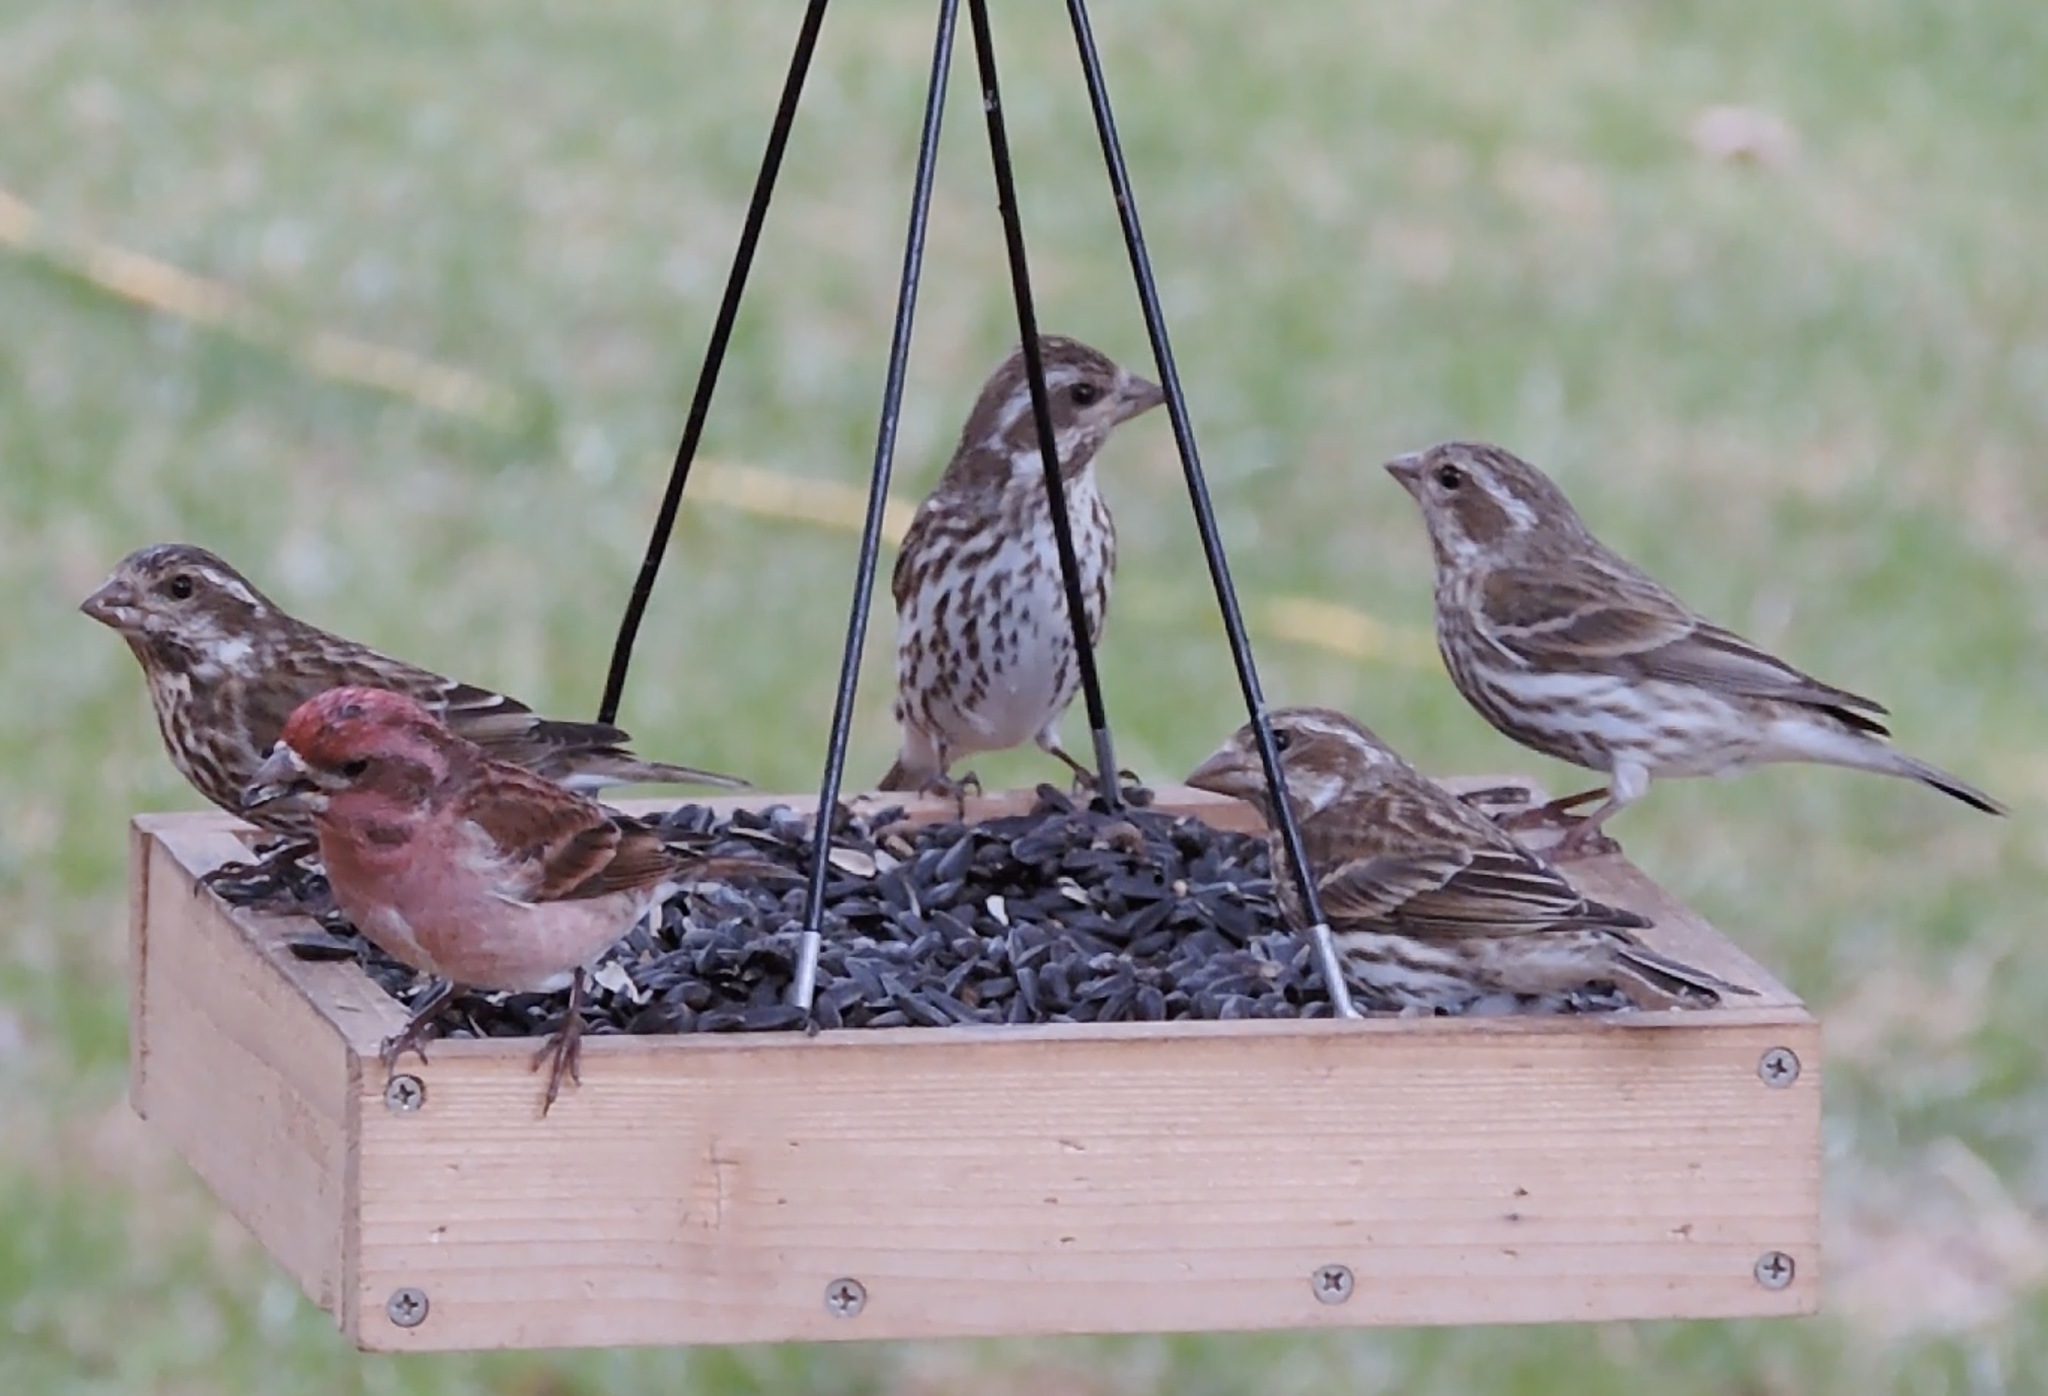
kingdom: Animalia
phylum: Chordata
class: Aves
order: Passeriformes
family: Fringillidae
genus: Haemorhous
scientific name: Haemorhous purpureus
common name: Purple finch
